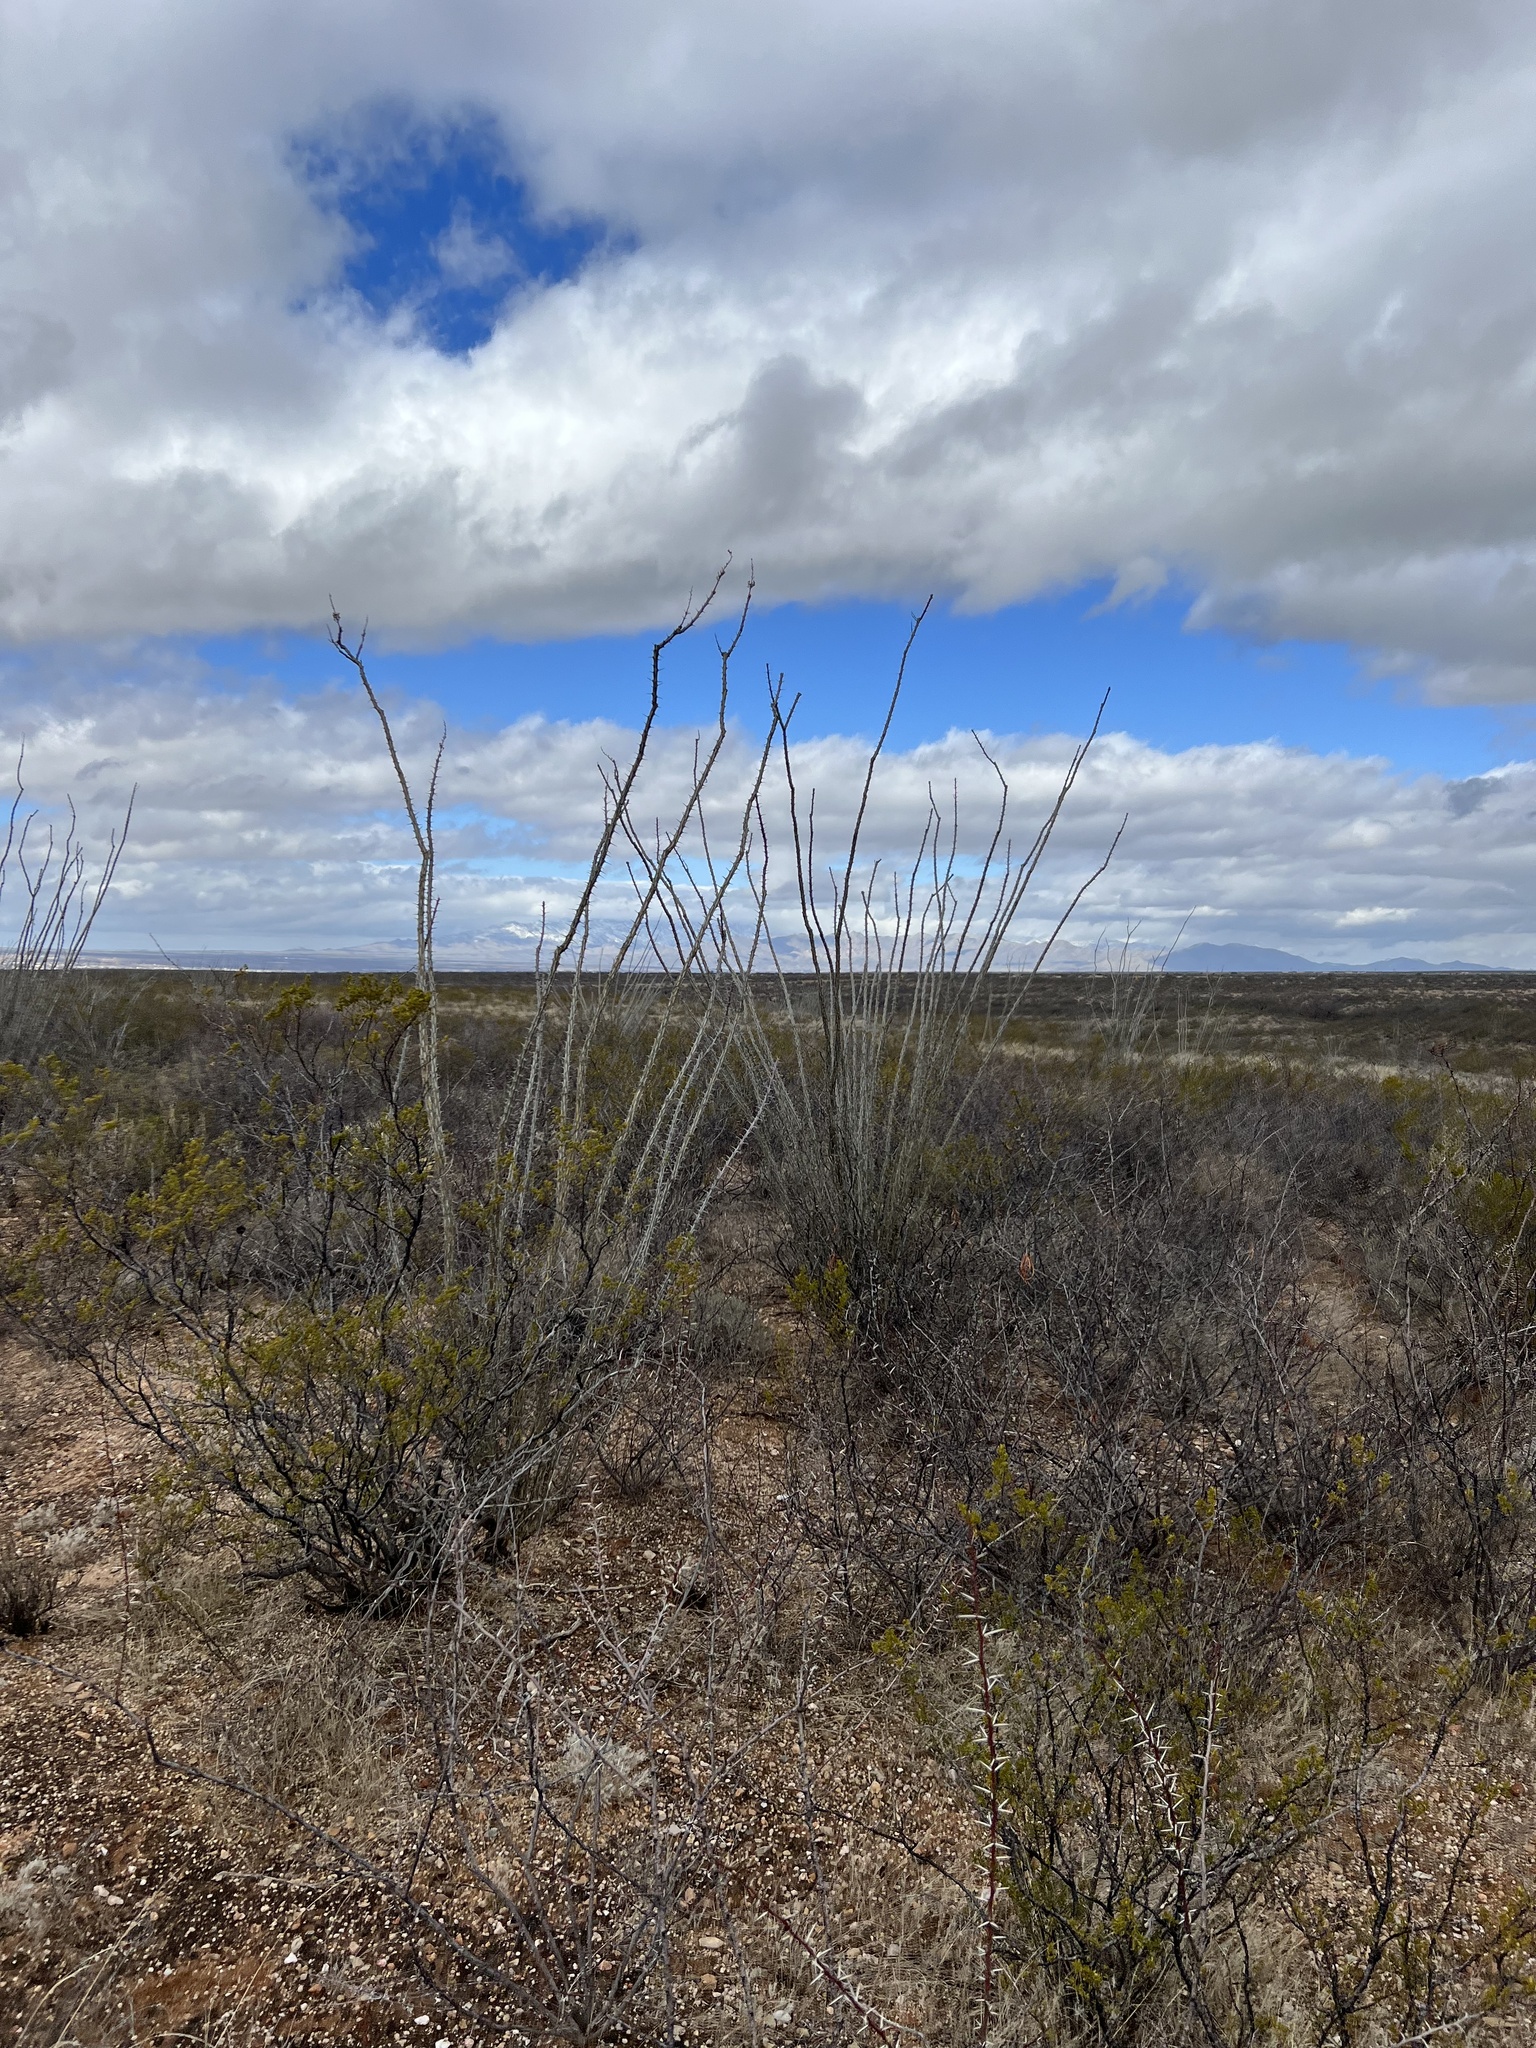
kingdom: Plantae
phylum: Tracheophyta
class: Magnoliopsida
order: Ericales
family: Fouquieriaceae
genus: Fouquieria
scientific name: Fouquieria splendens
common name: Vine-cactus
